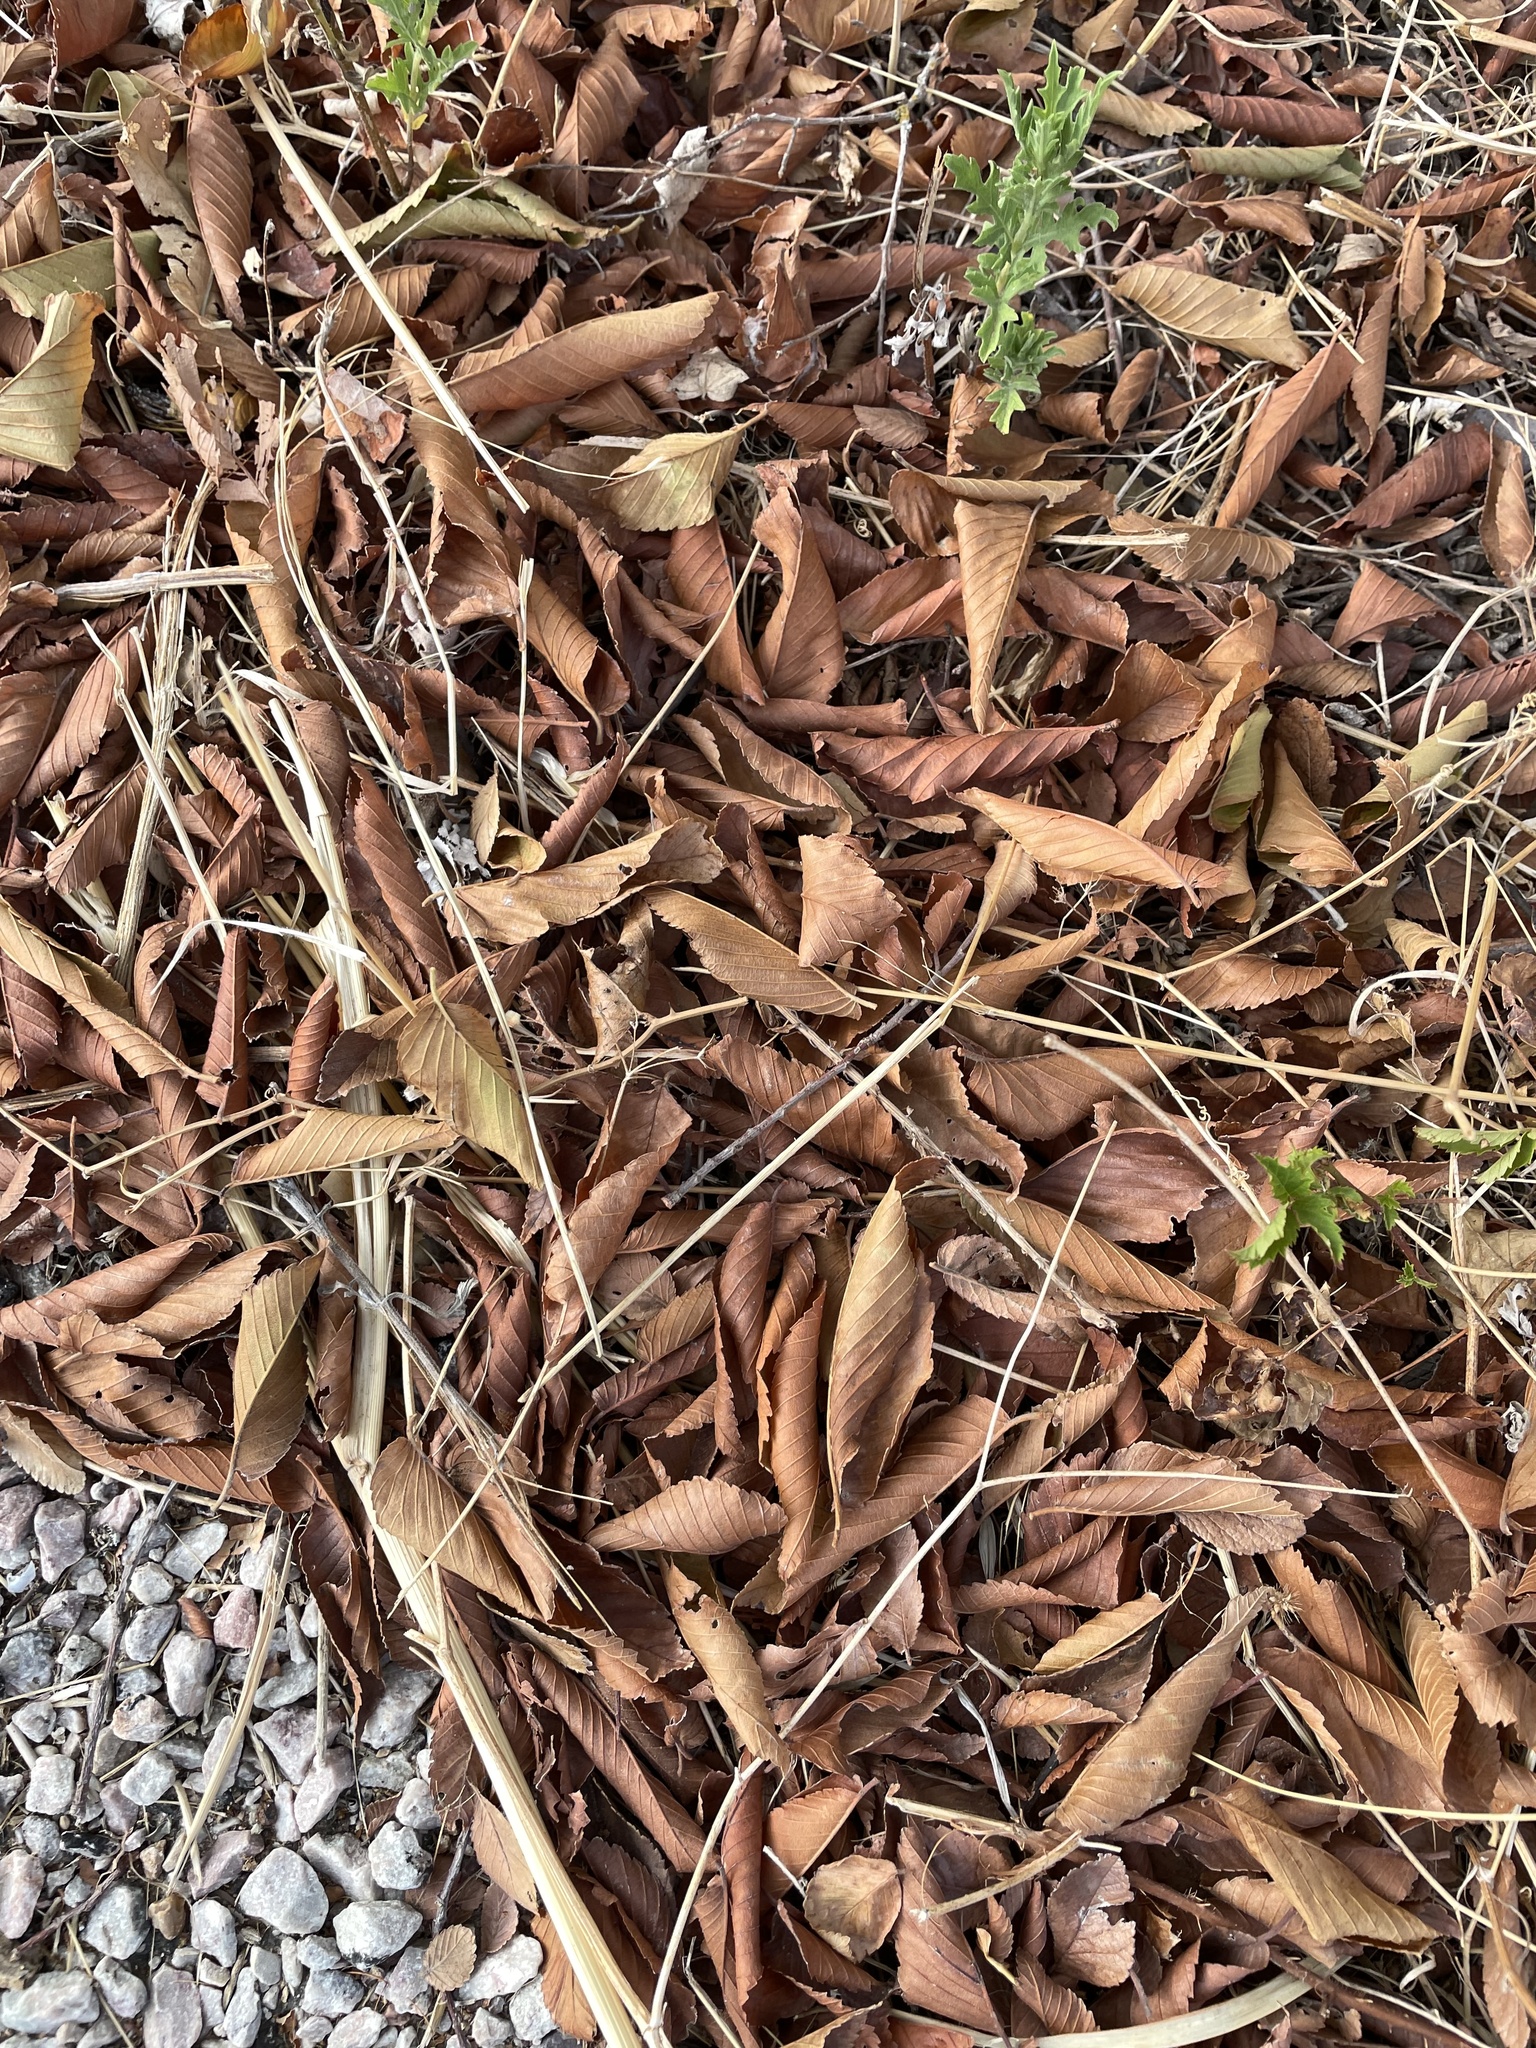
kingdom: Plantae
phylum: Tracheophyta
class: Magnoliopsida
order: Rosales
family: Ulmaceae
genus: Ulmus
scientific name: Ulmus americana
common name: American elm
